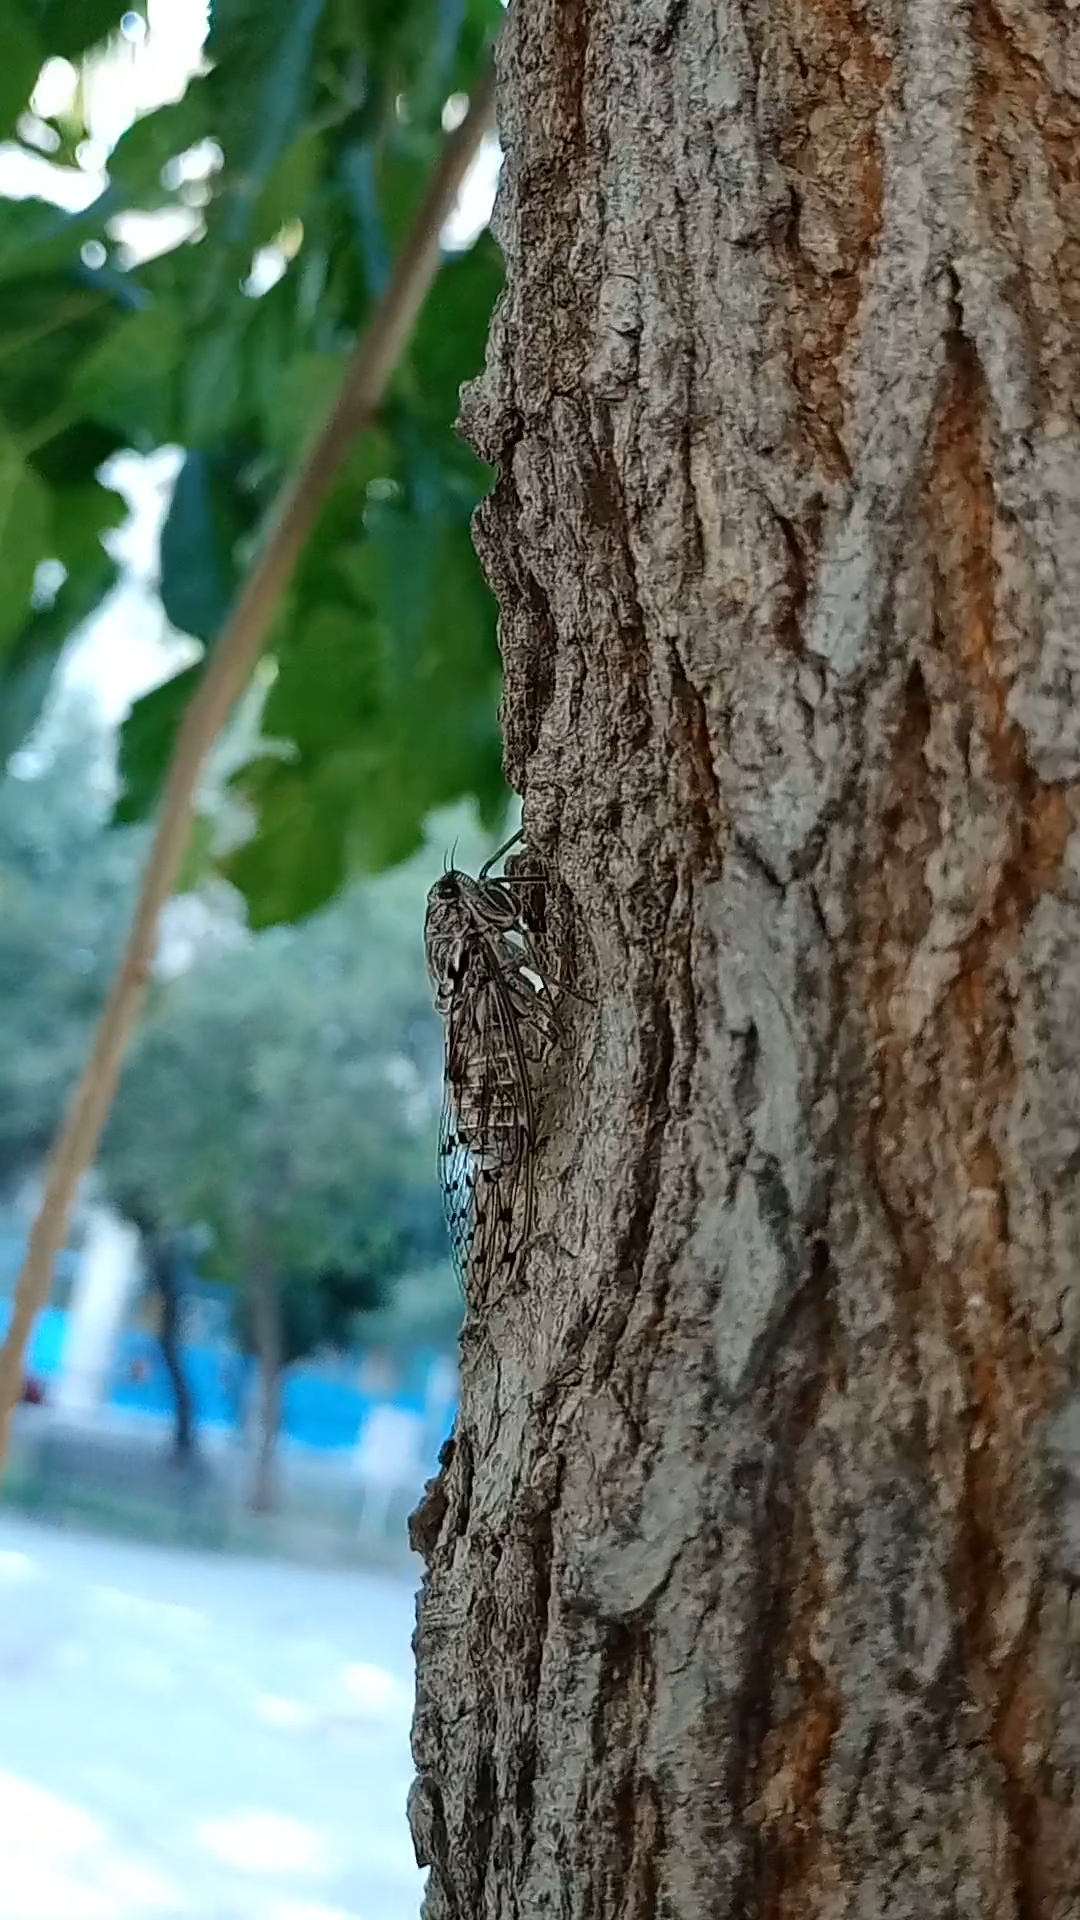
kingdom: Animalia
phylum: Arthropoda
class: Insecta
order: Hemiptera
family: Cicadidae
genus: Cicada
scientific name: Cicada mordoganensis
